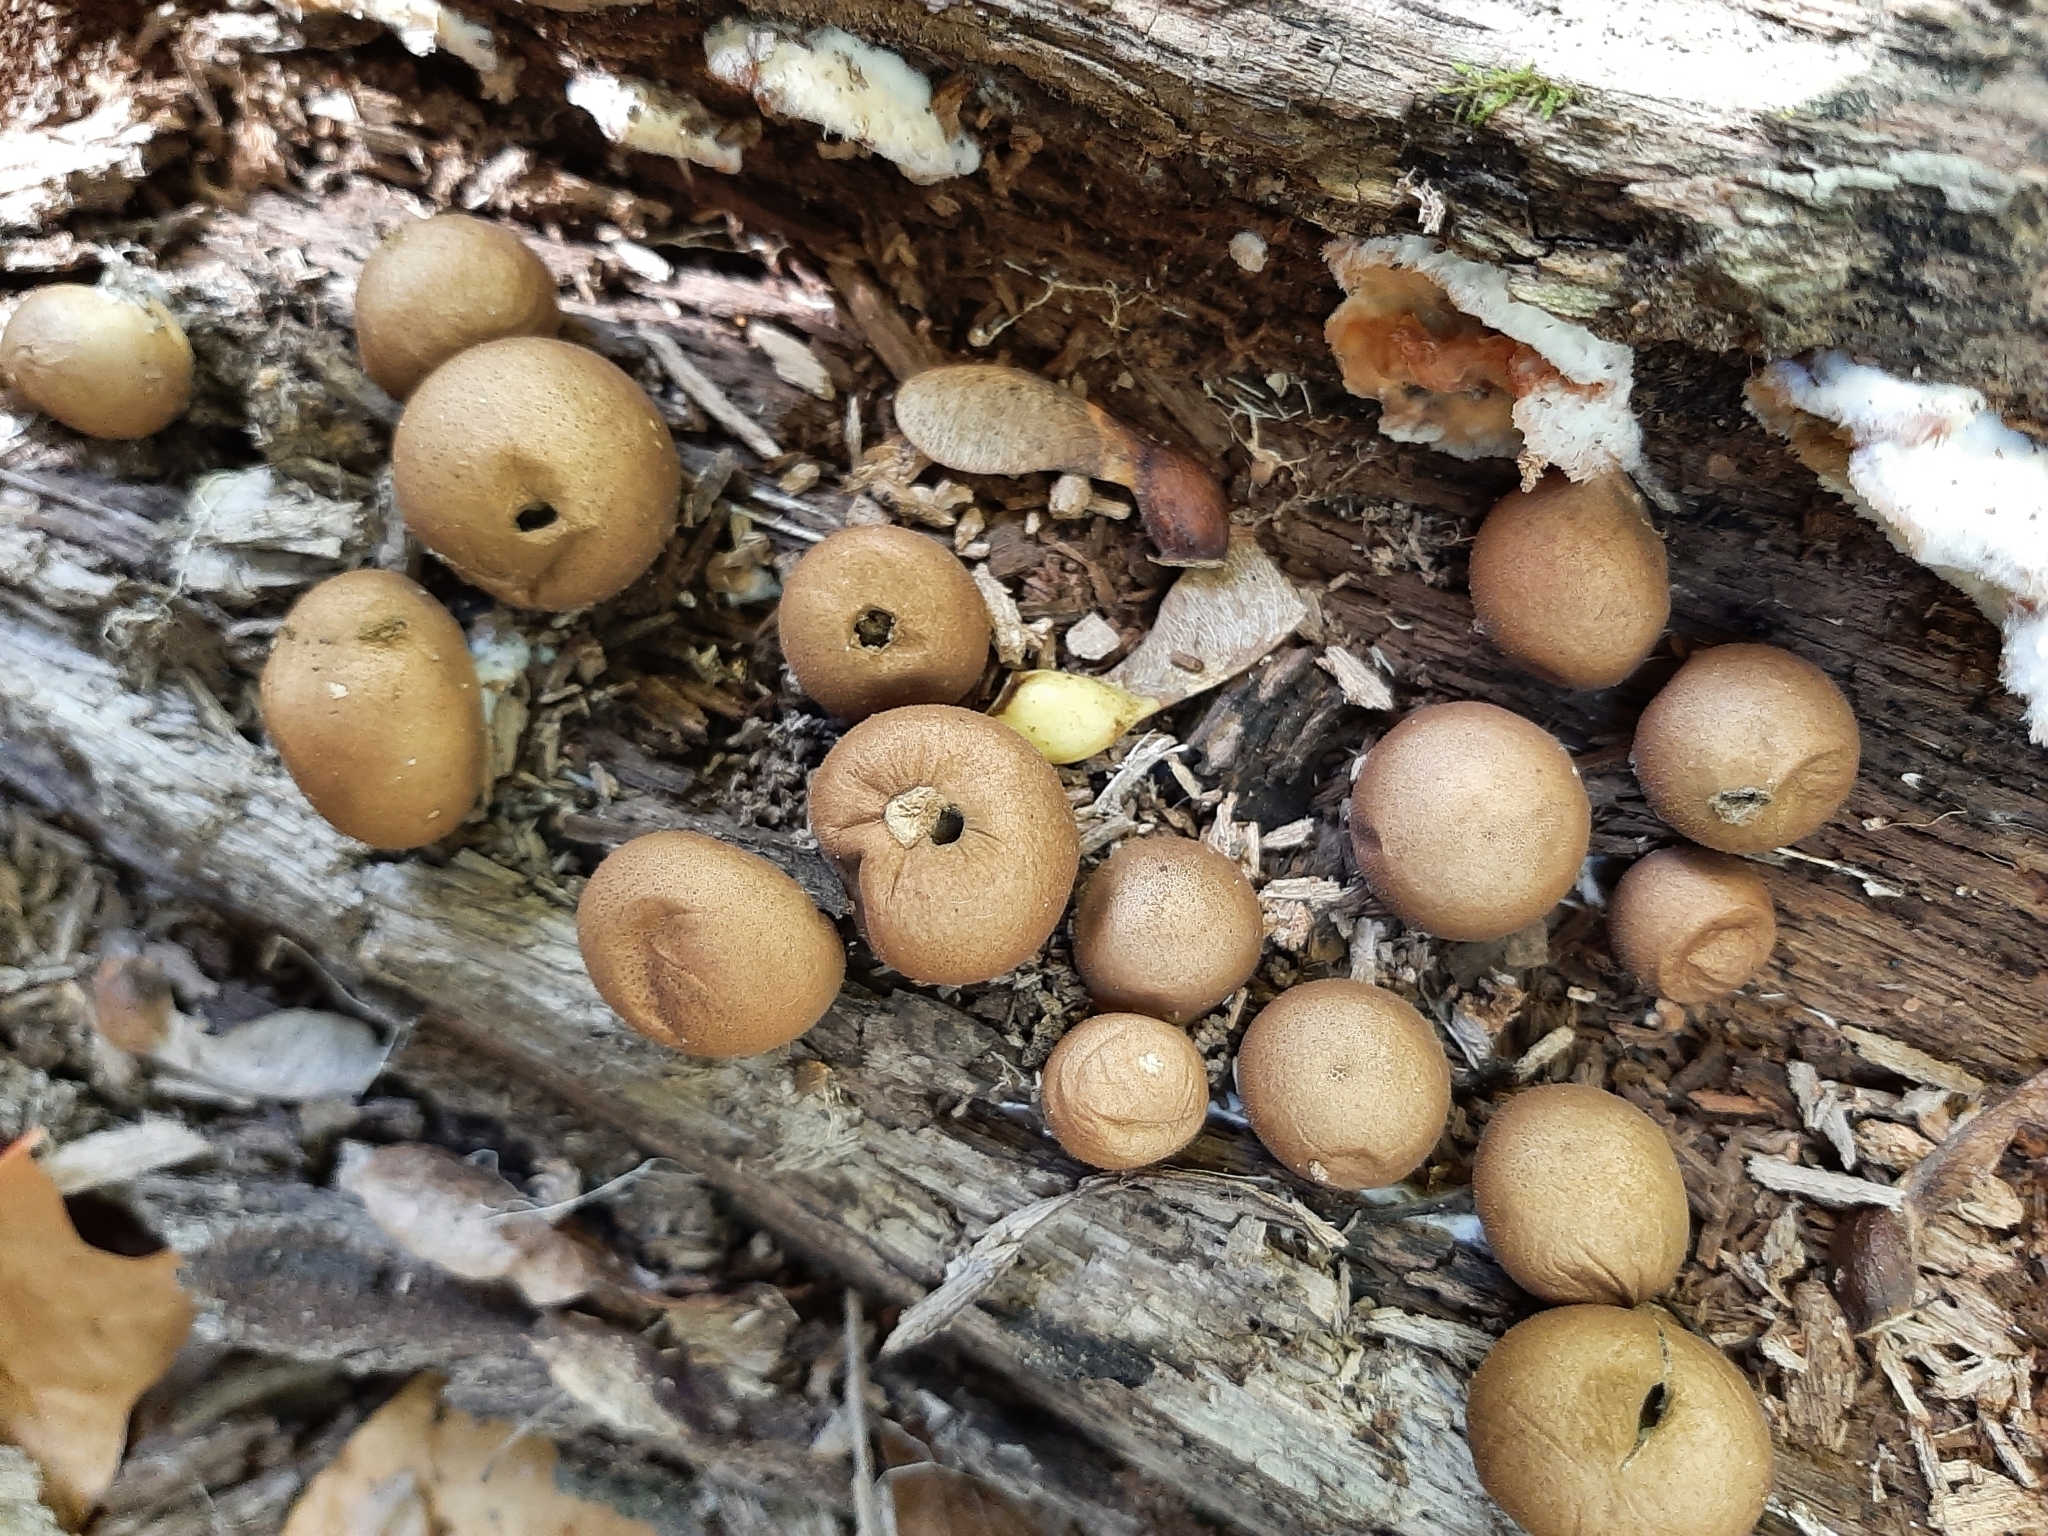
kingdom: Fungi
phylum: Basidiomycota
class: Agaricomycetes
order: Agaricales
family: Lycoperdaceae
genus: Apioperdon
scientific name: Apioperdon pyriforme
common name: Pear-shaped puffball
